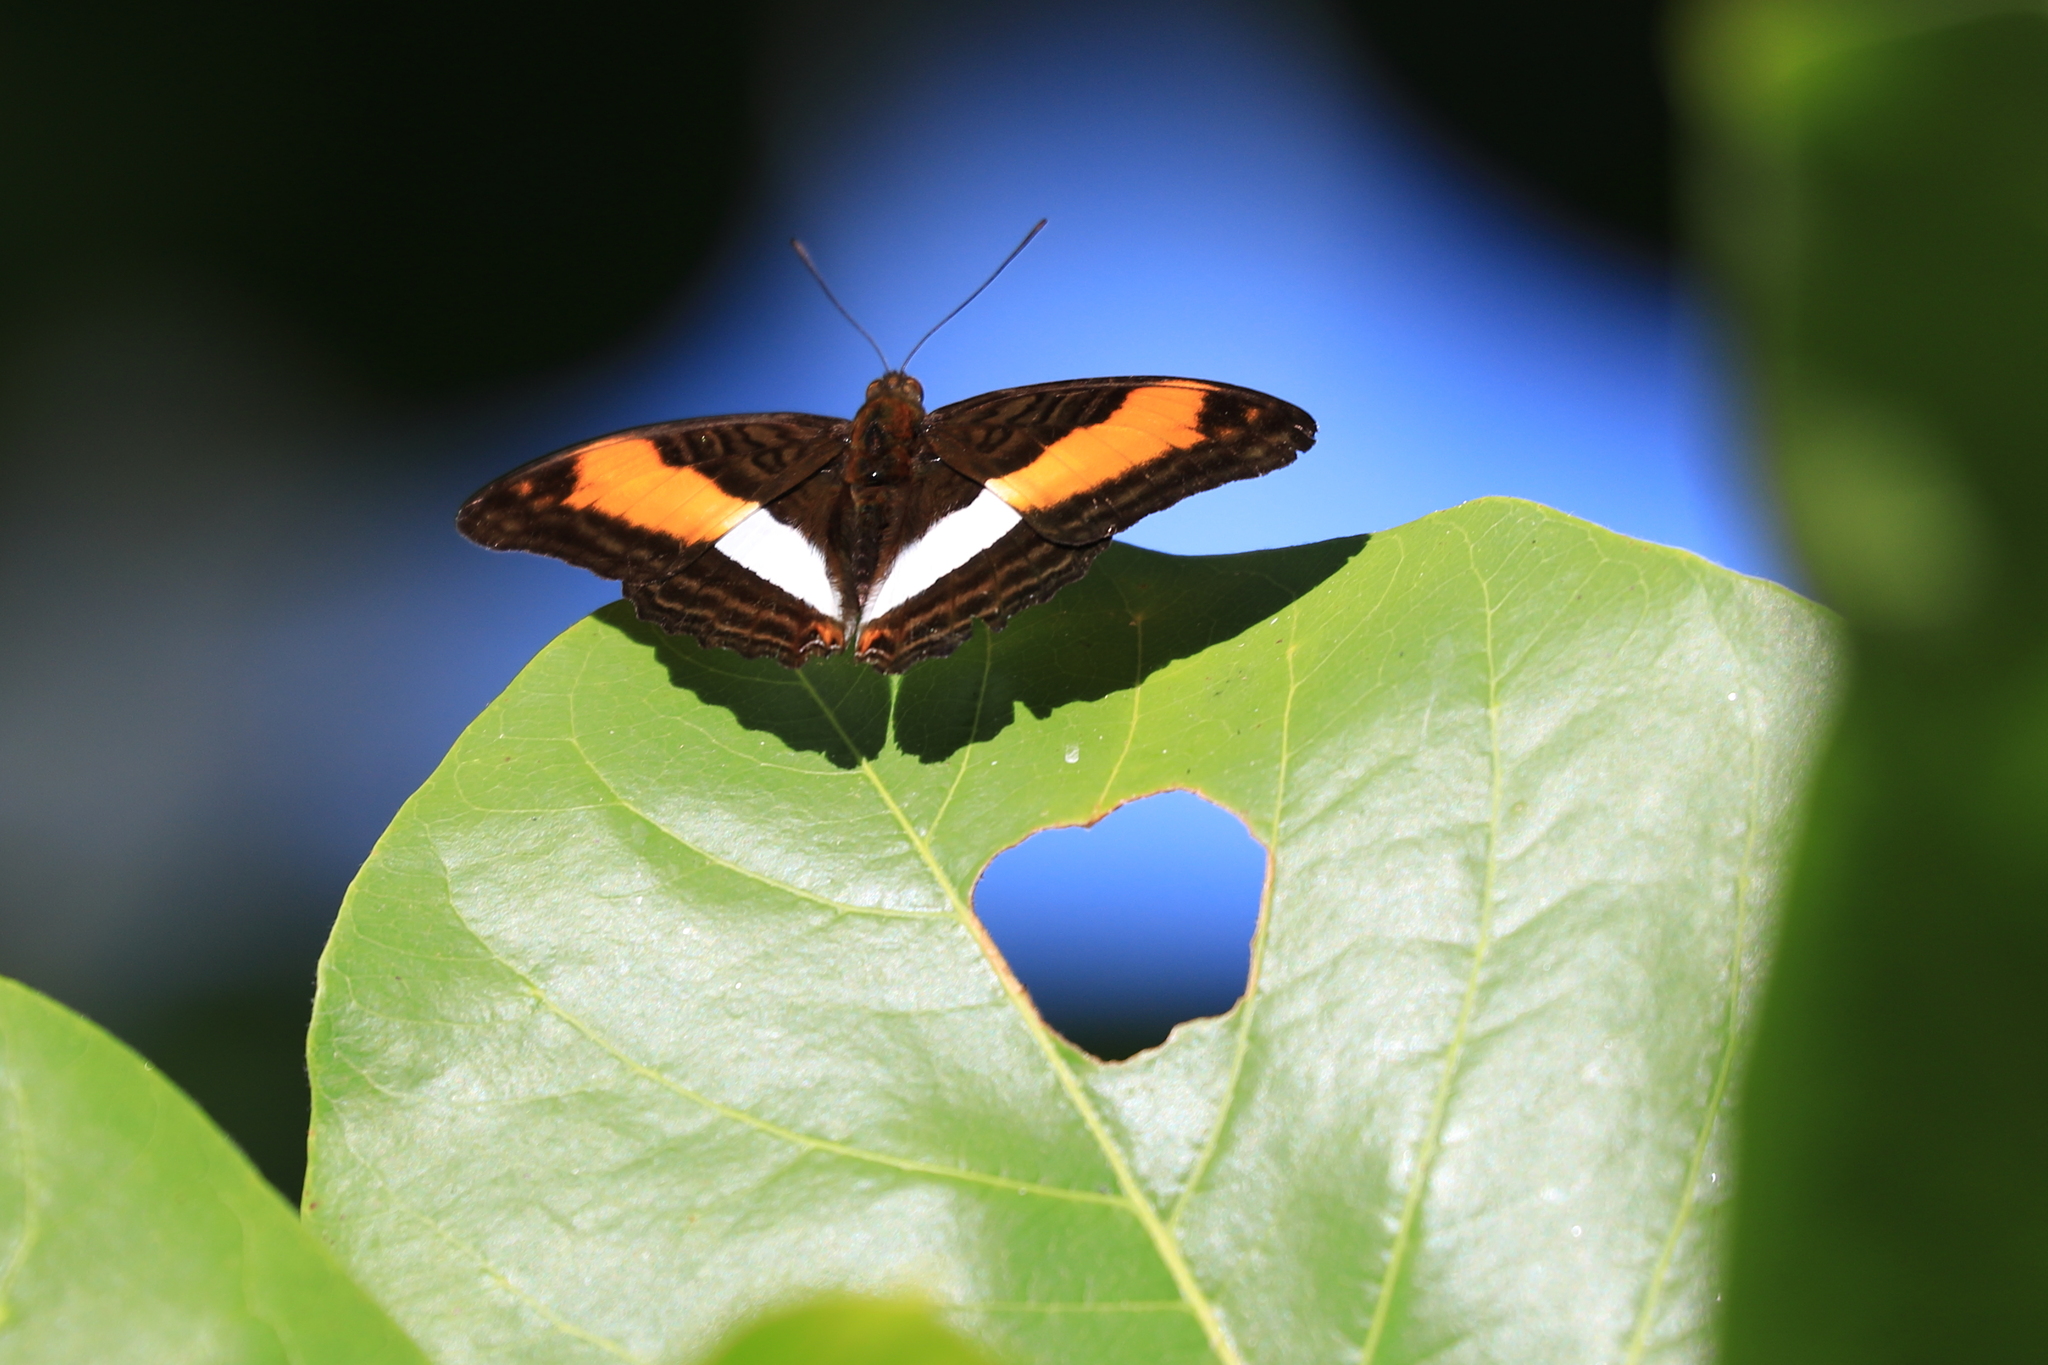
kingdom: Animalia
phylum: Arthropoda
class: Insecta
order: Lepidoptera
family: Nymphalidae
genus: Limenitis
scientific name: Limenitis cocala
